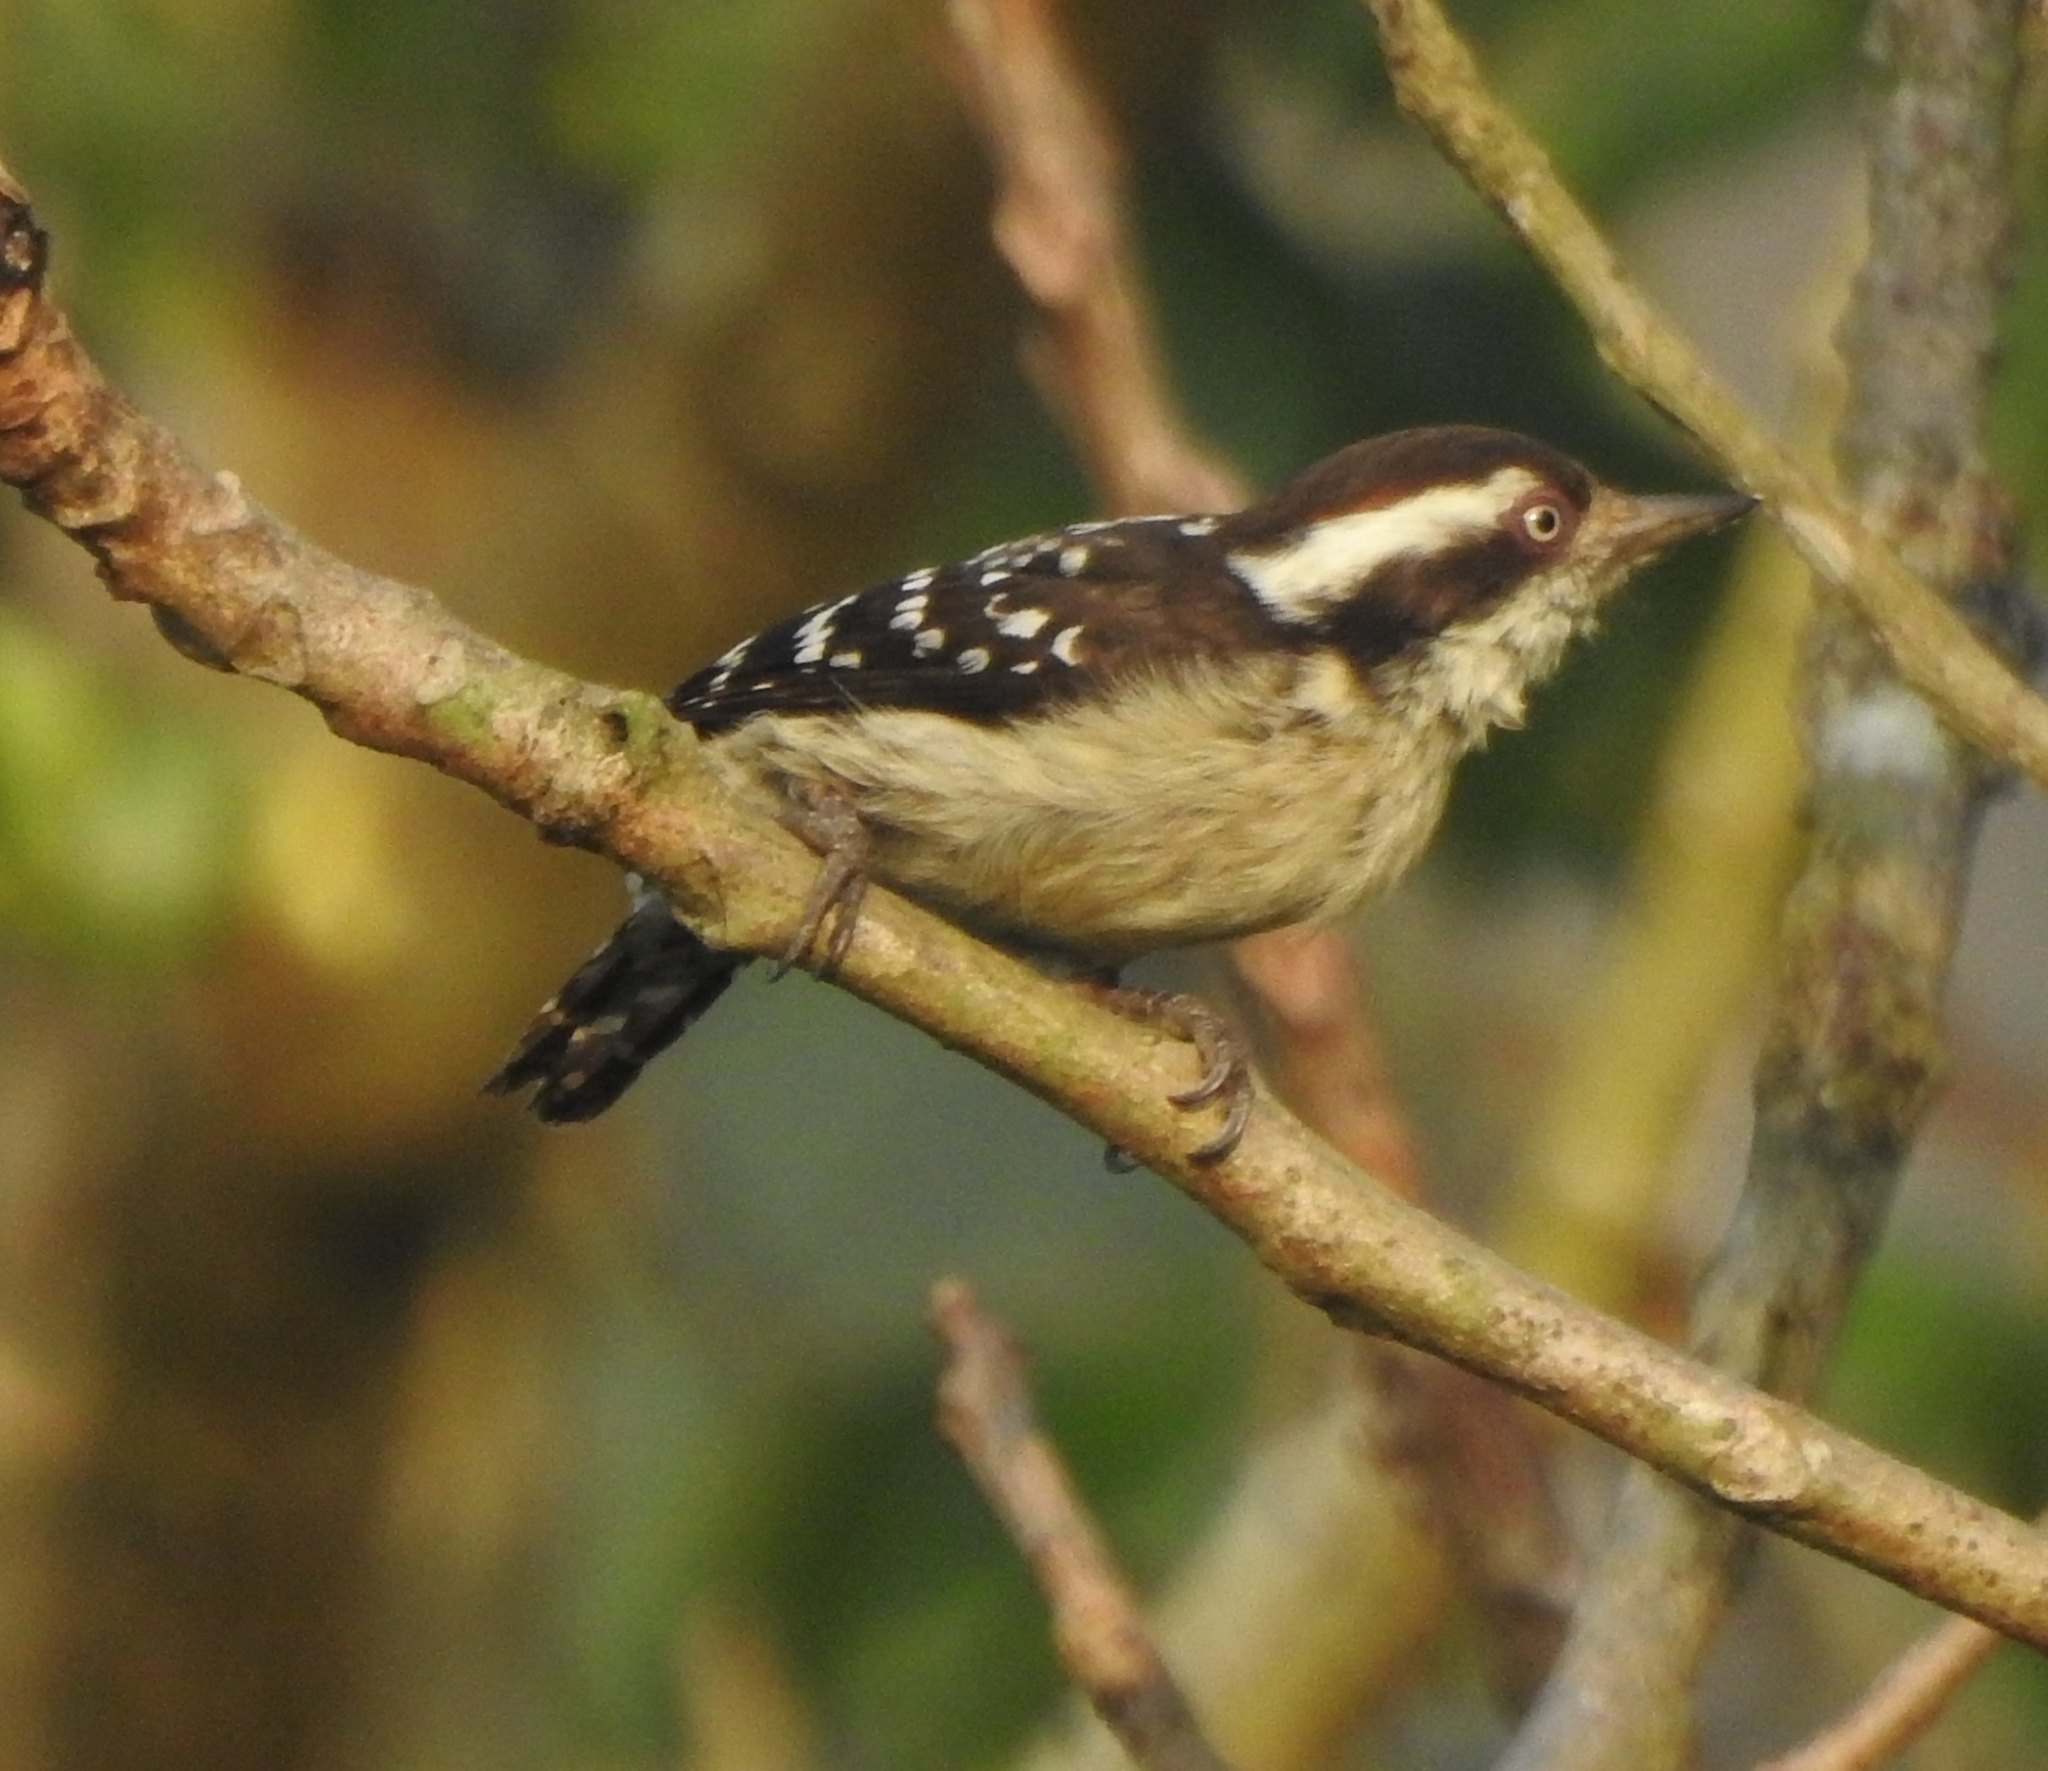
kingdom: Animalia
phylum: Chordata
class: Aves
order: Piciformes
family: Picidae
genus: Yungipicus
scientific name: Yungipicus nanus
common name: Brown-capped pygmy woodpecker
